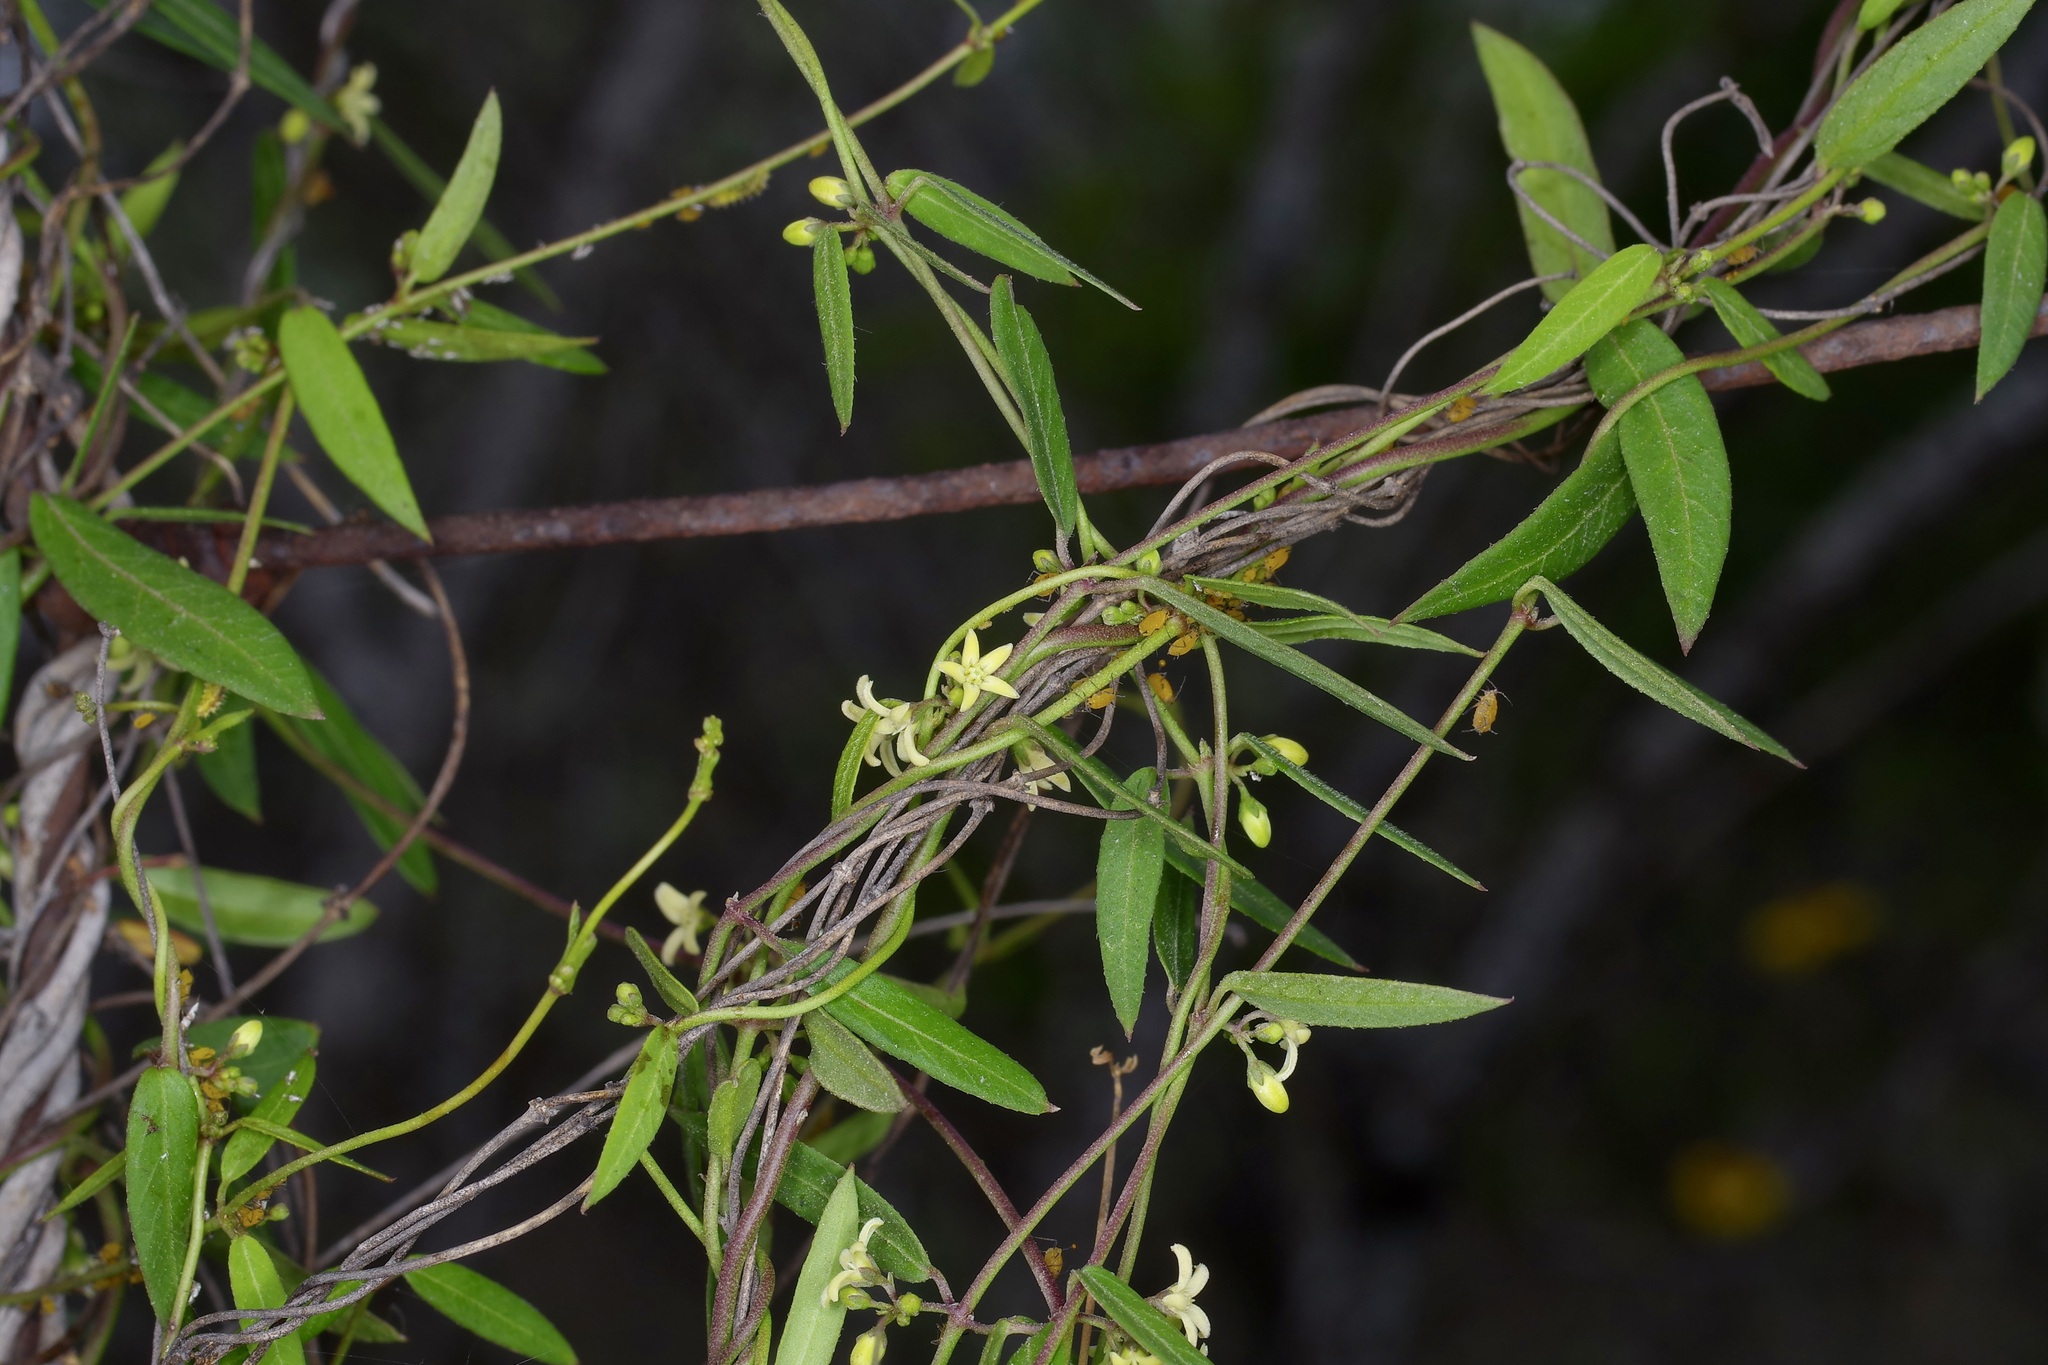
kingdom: Plantae
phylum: Tracheophyta
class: Magnoliopsida
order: Gentianales
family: Apocynaceae
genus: Metastelma
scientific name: Metastelma palmeri
